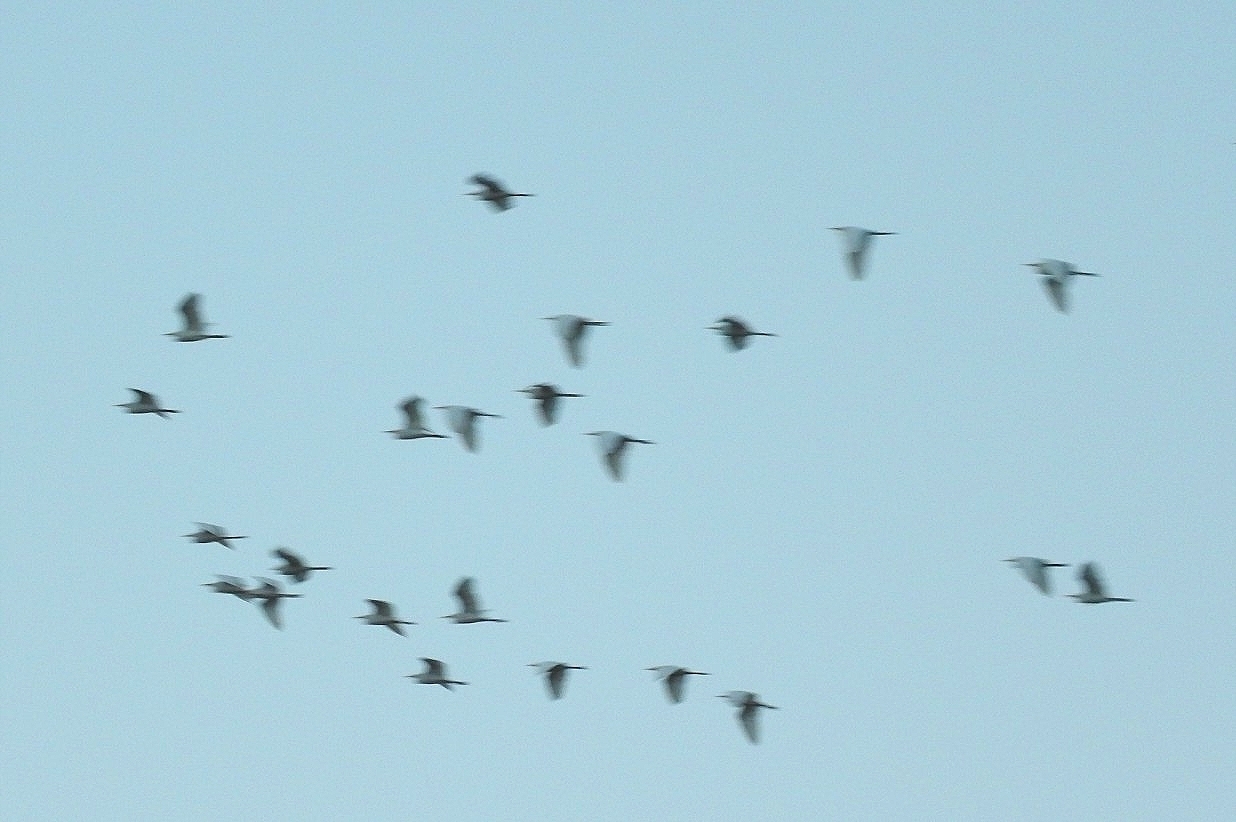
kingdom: Animalia
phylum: Chordata
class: Aves
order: Pelecaniformes
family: Ardeidae
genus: Bubulcus
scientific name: Bubulcus ibis
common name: Cattle egret
